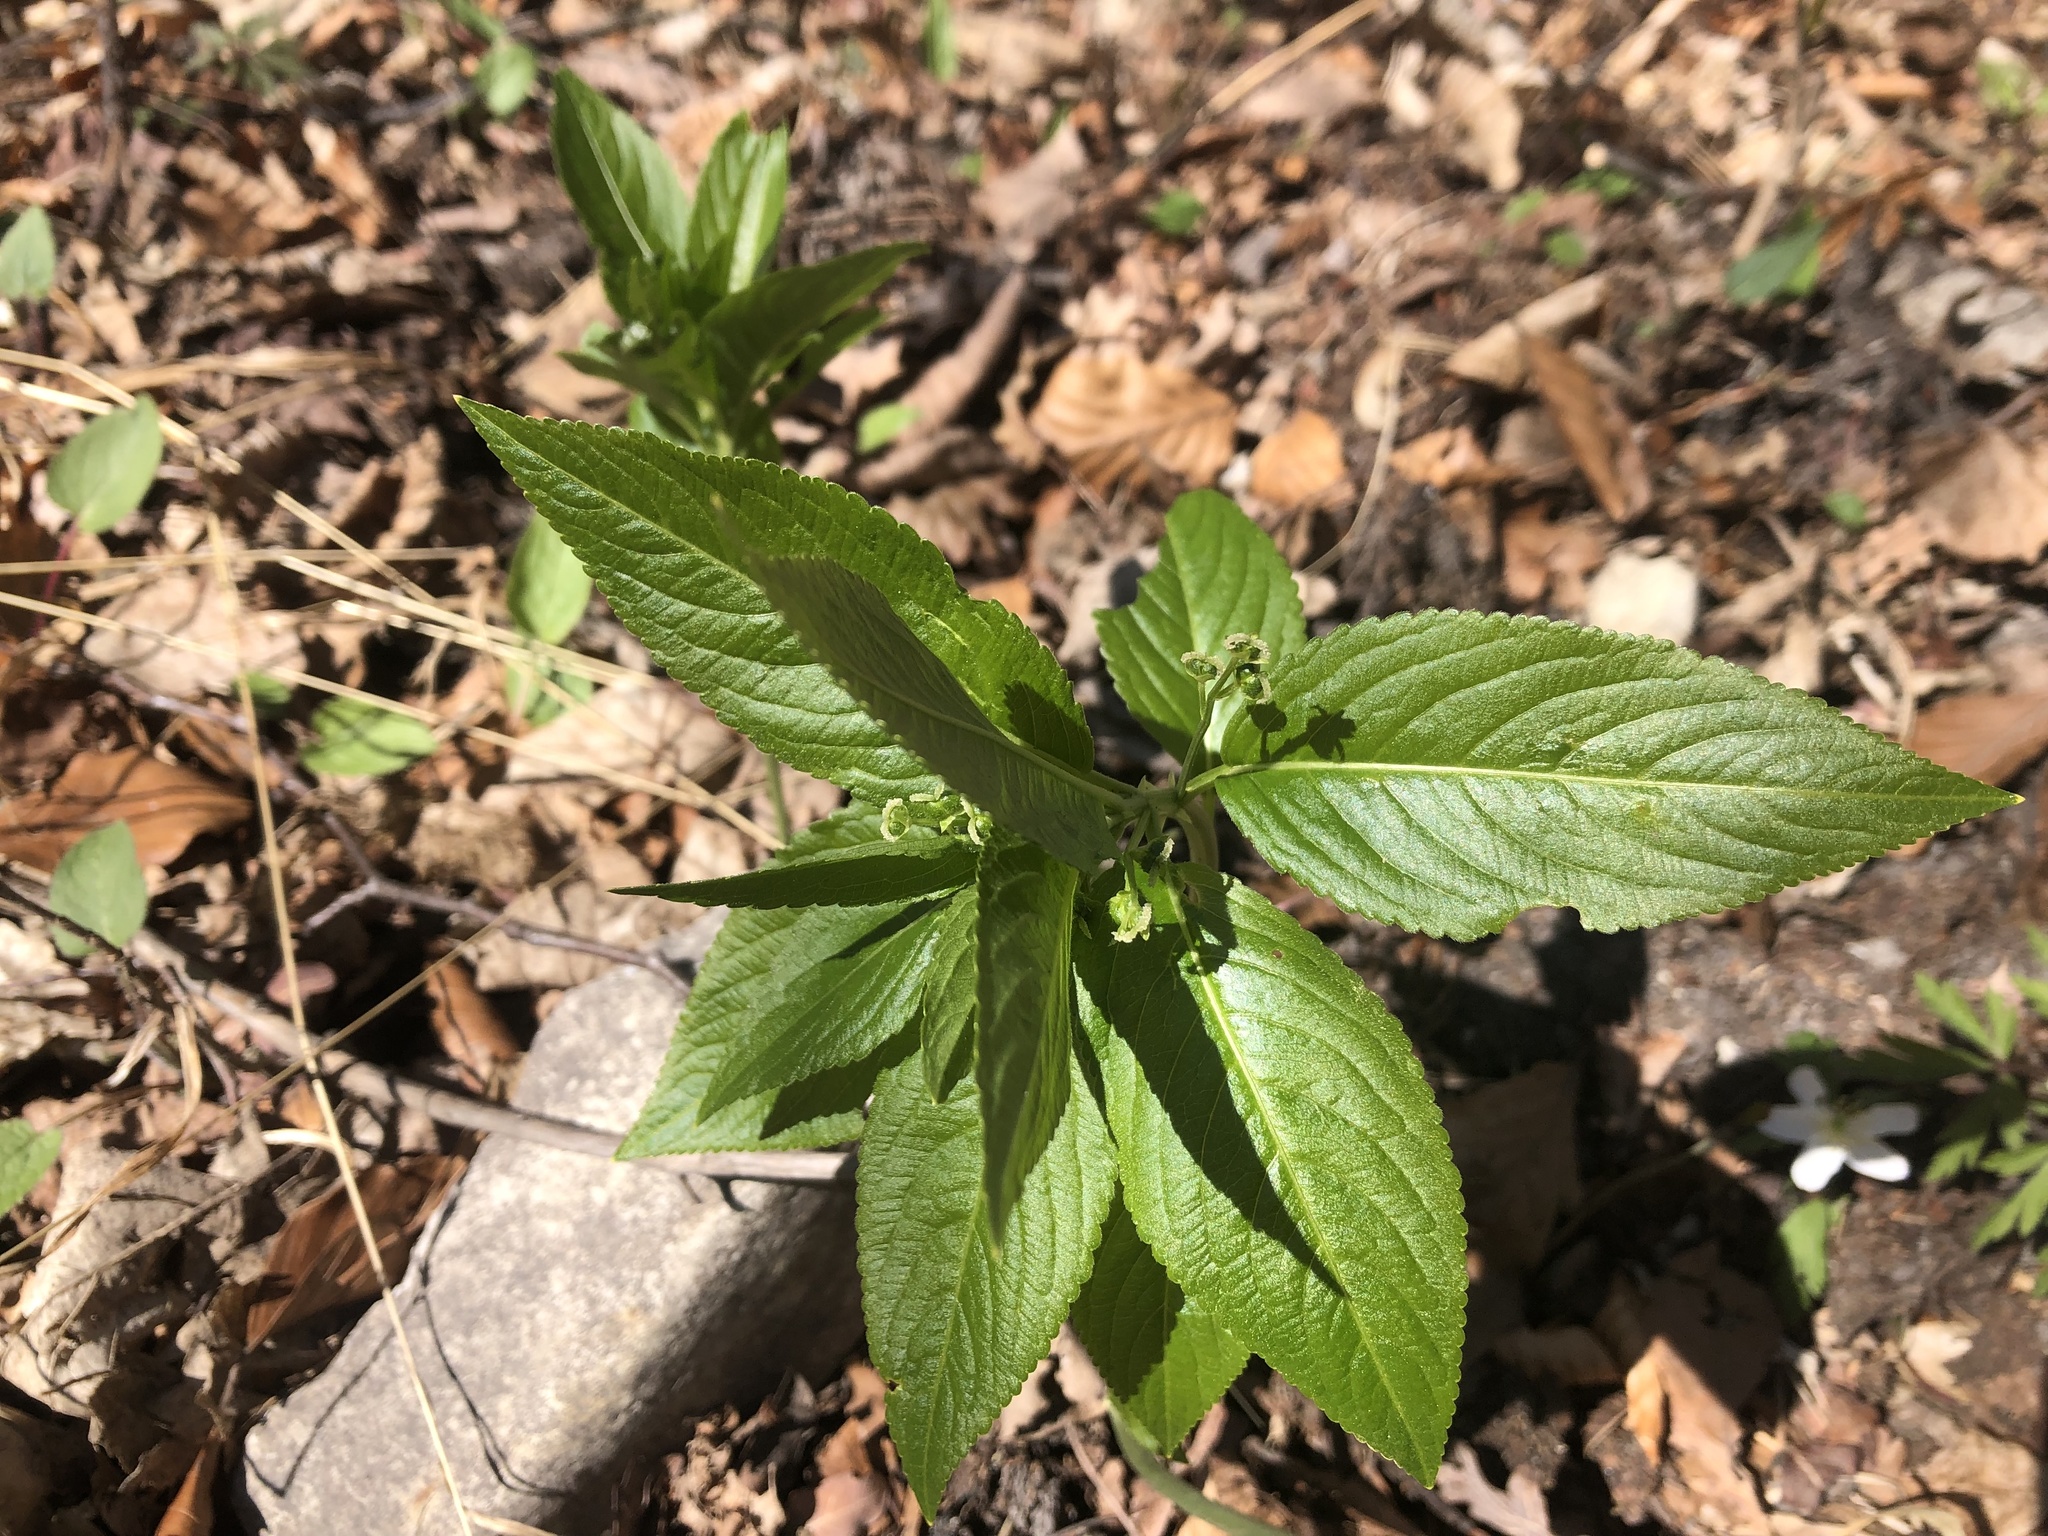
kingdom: Plantae
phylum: Tracheophyta
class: Magnoliopsida
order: Malpighiales
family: Euphorbiaceae
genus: Mercurialis
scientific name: Mercurialis perennis
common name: Dog mercury
